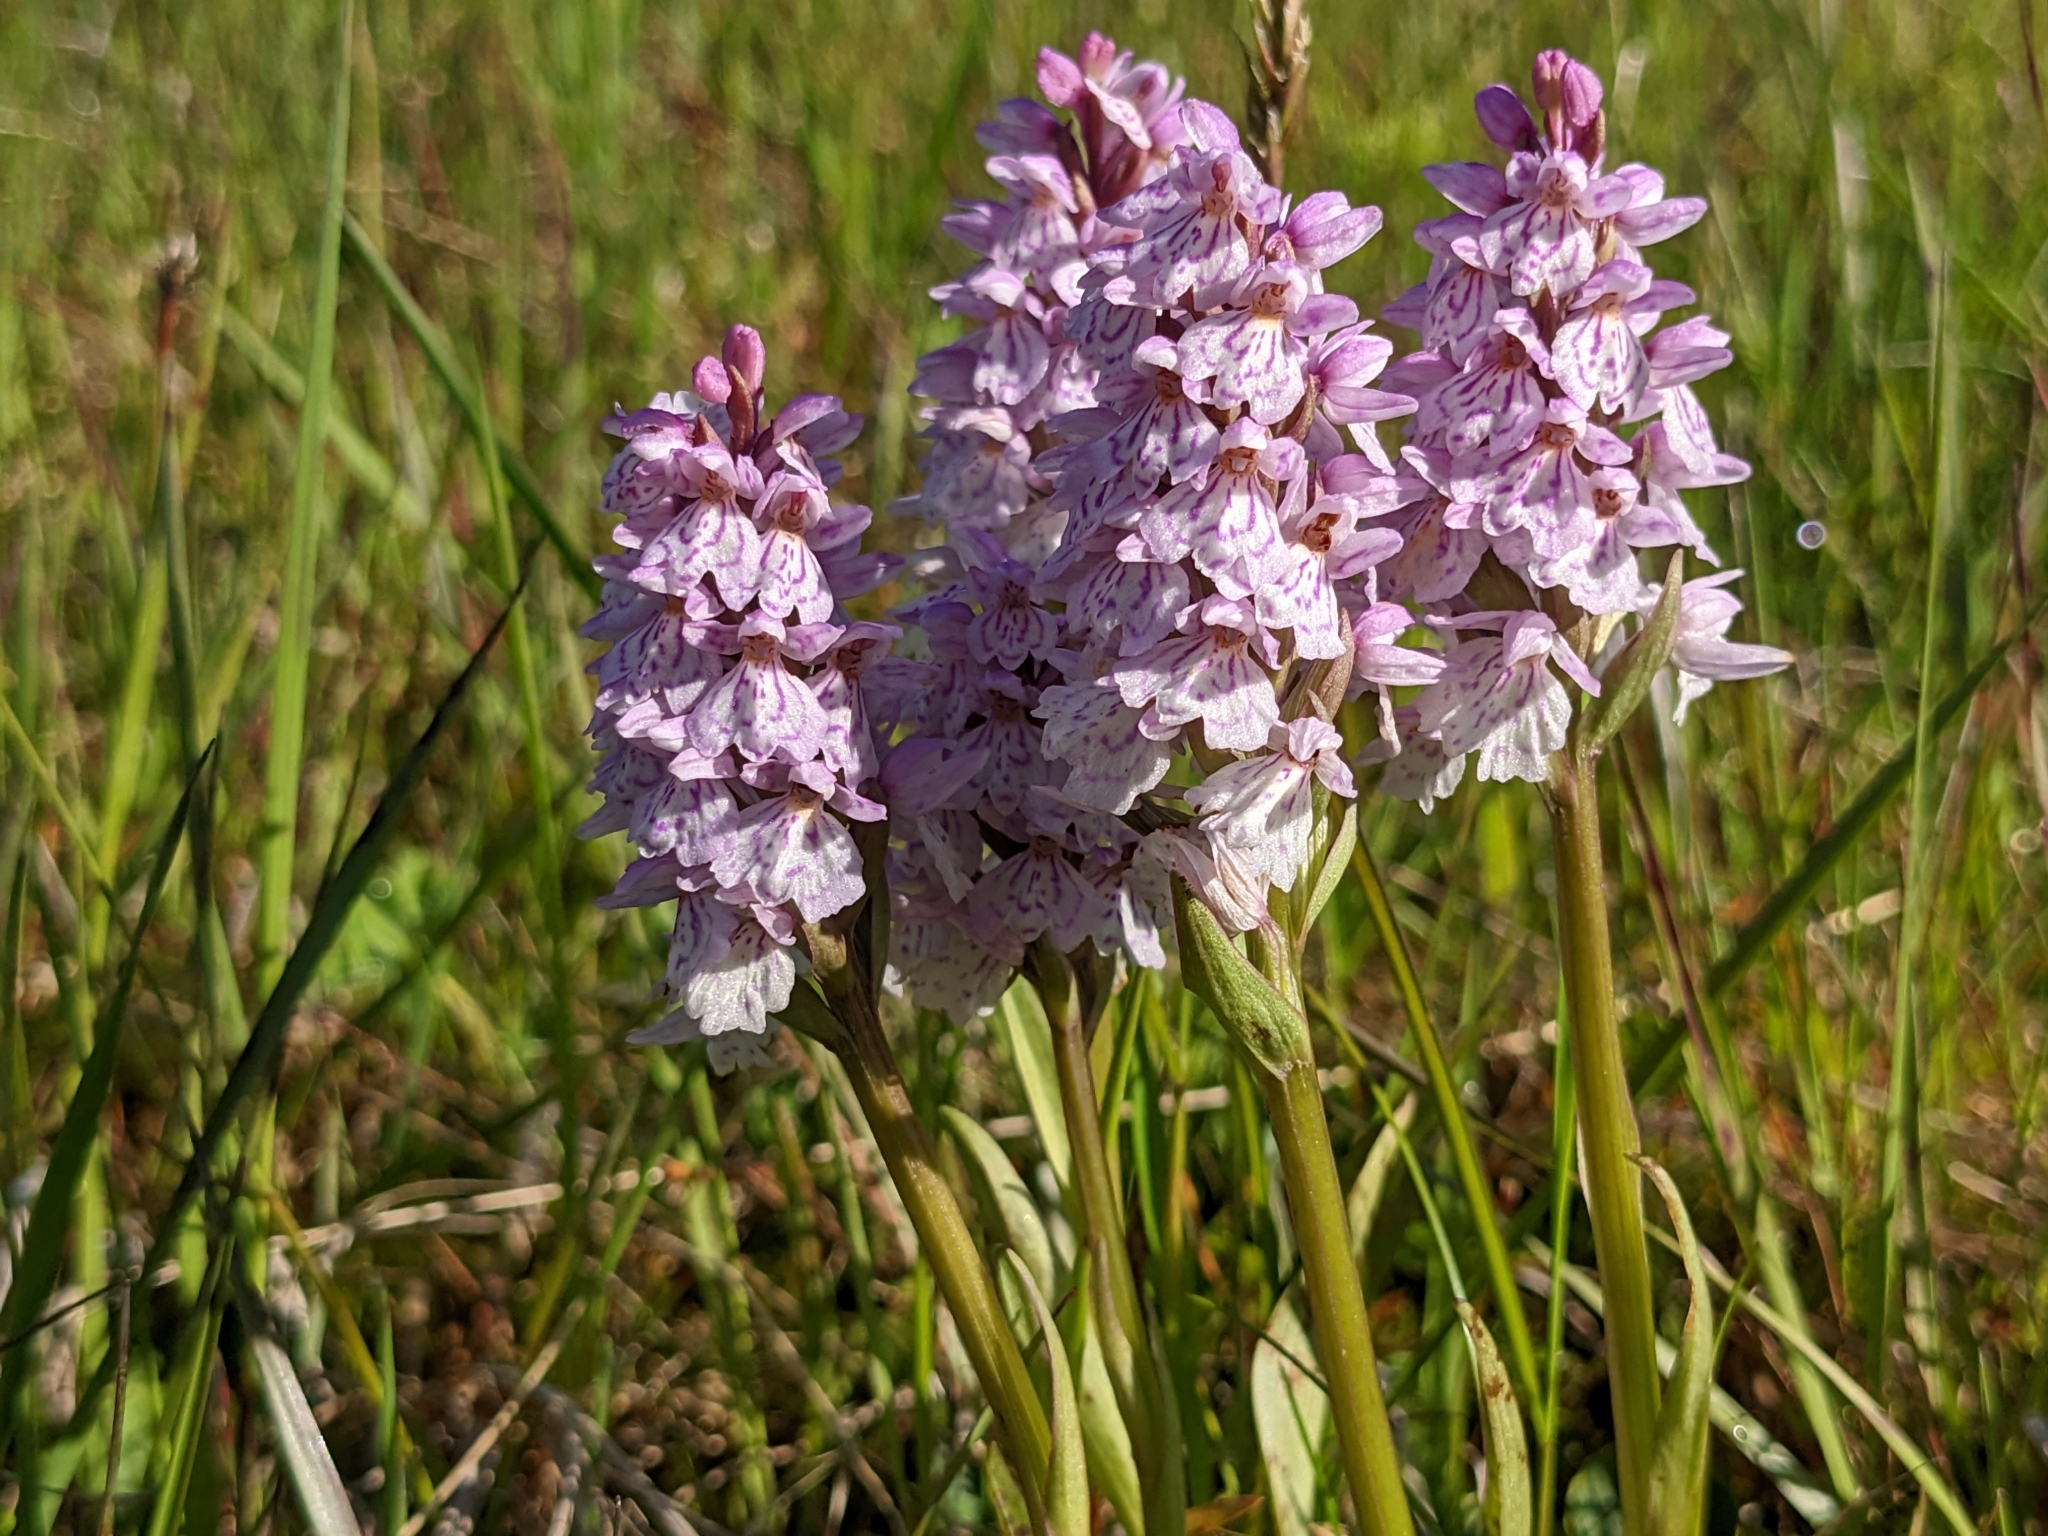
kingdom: Plantae
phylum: Tracheophyta
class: Liliopsida
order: Asparagales
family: Orchidaceae
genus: Dactylorhiza
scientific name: Dactylorhiza maculata
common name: Heath spotted-orchid
